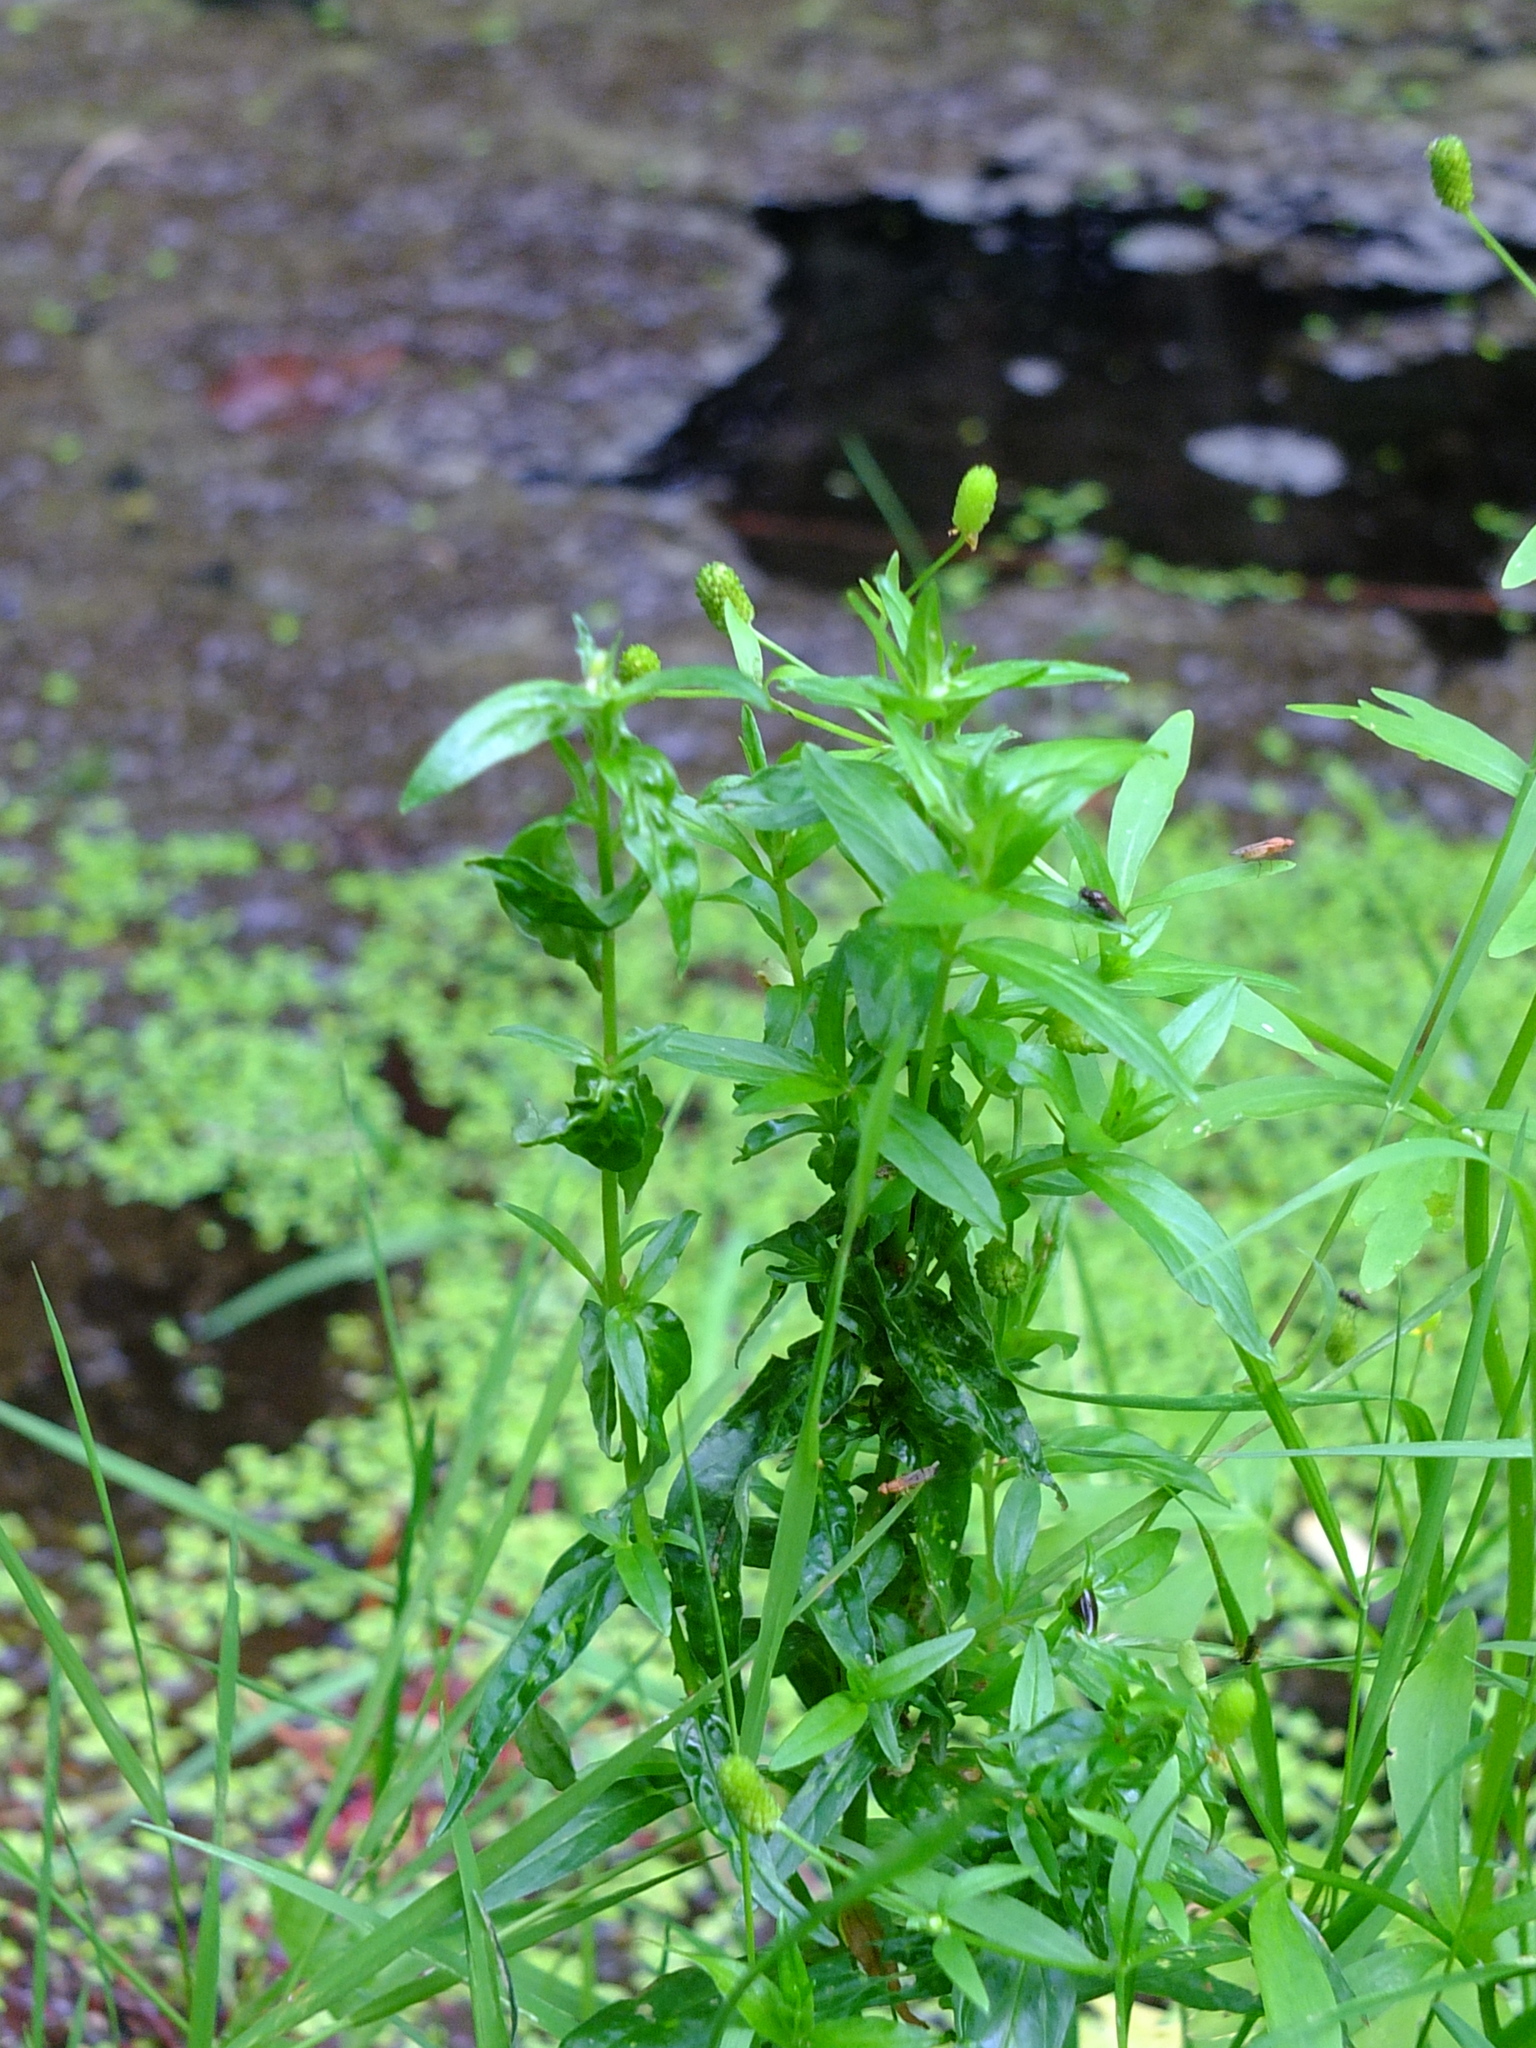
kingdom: Plantae
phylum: Tracheophyta
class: Magnoliopsida
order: Ranunculales
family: Ranunculaceae
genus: Ranunculus
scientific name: Ranunculus sceleratus
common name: Celery-leaved buttercup
